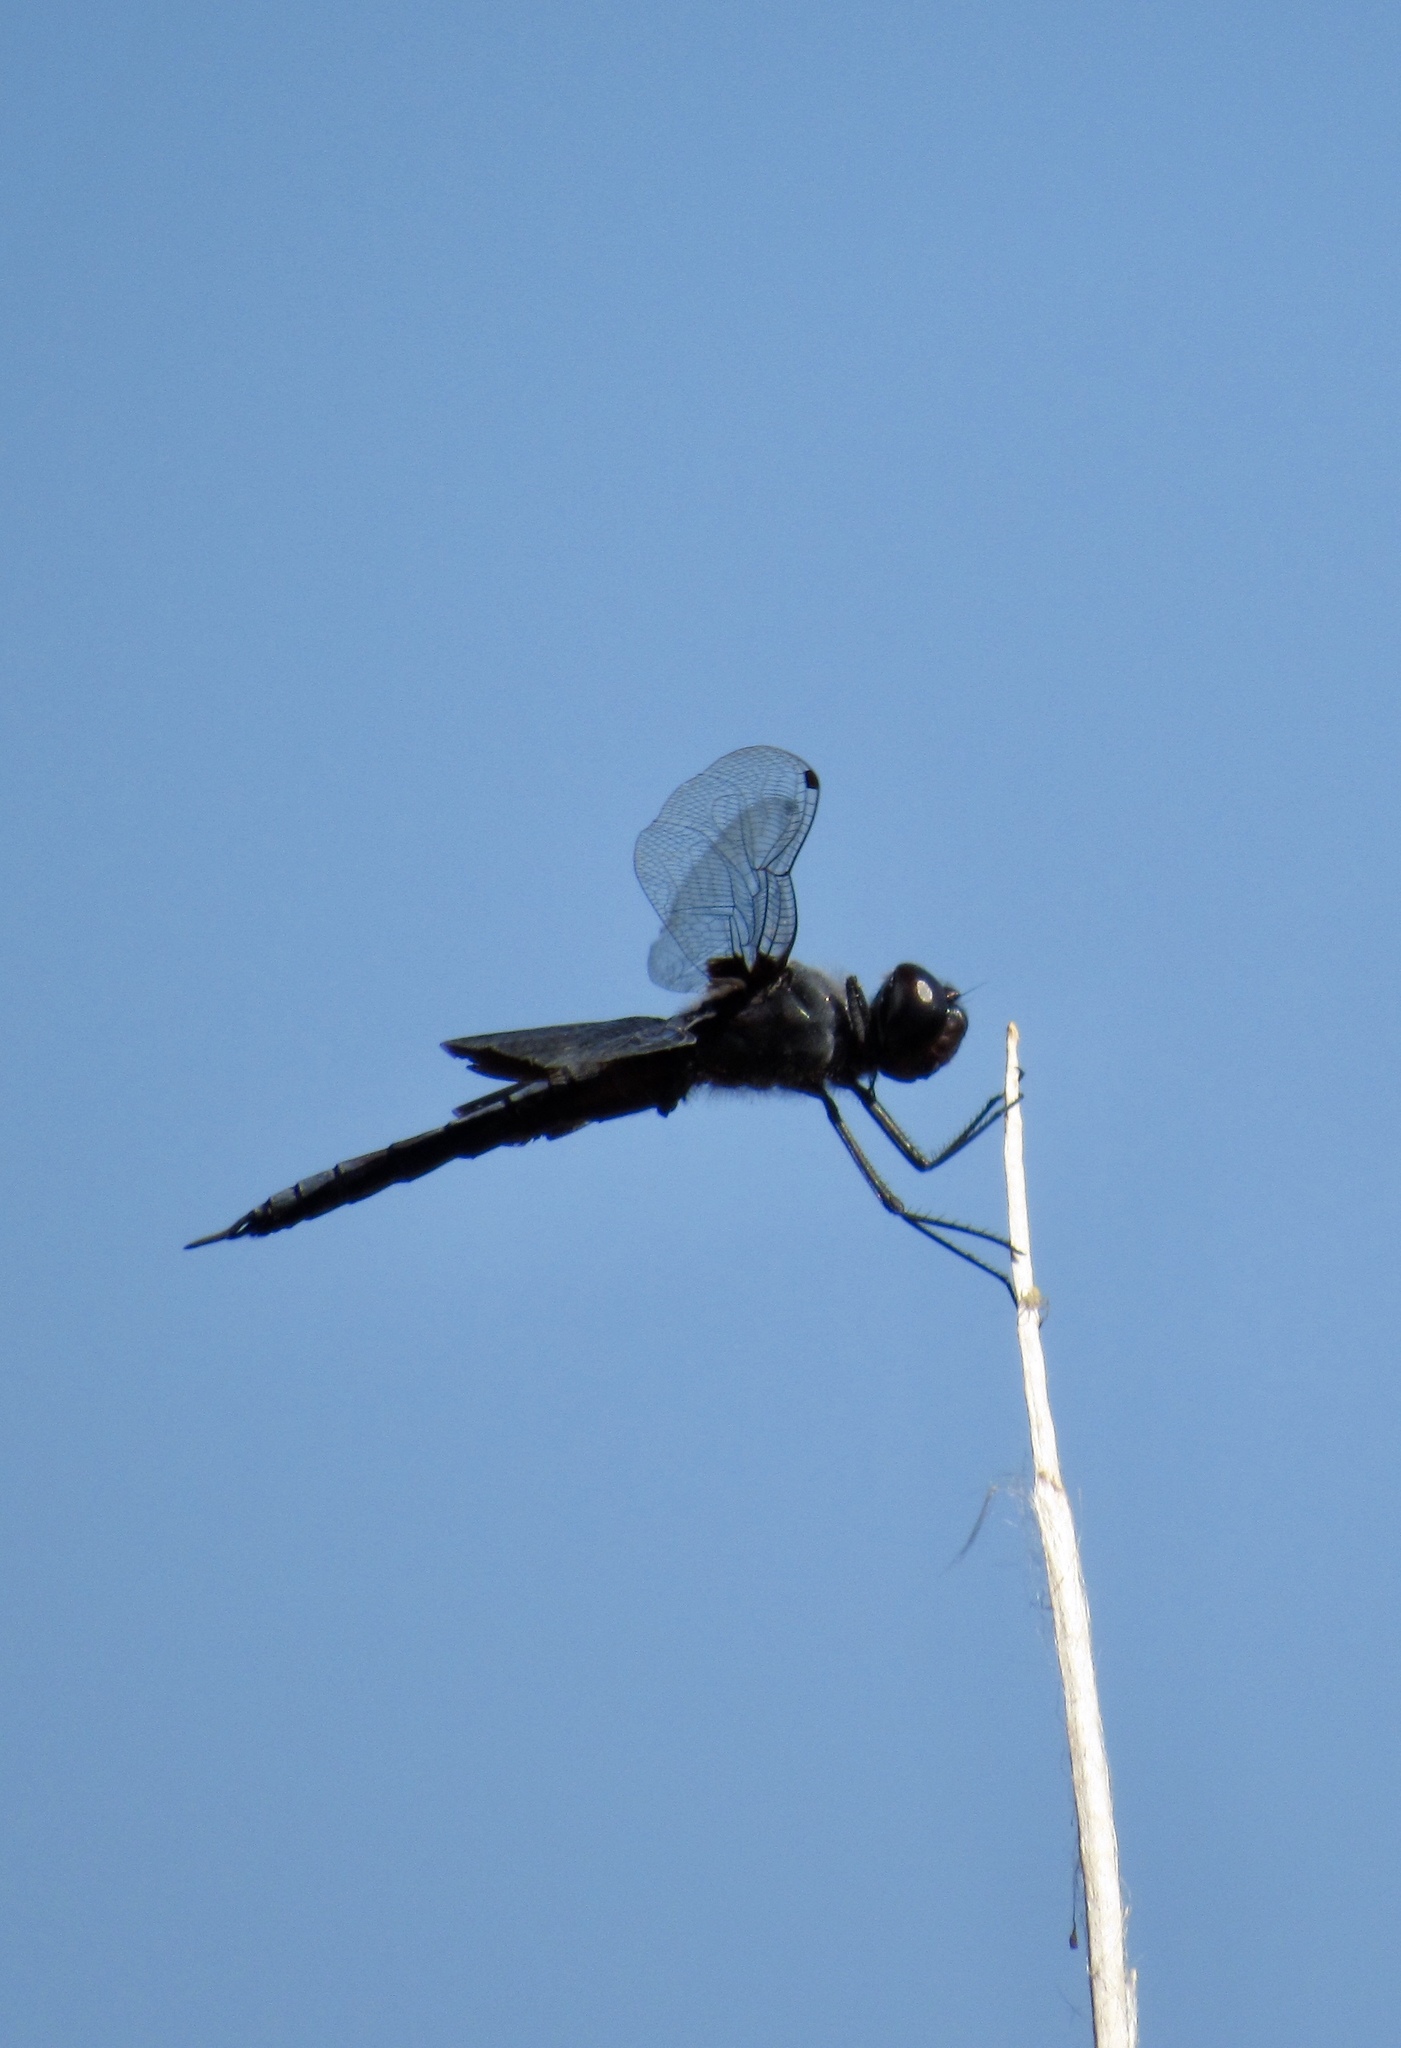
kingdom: Animalia
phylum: Arthropoda
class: Insecta
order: Odonata
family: Libellulidae
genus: Tramea
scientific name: Tramea lacerata
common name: Black saddlebags
